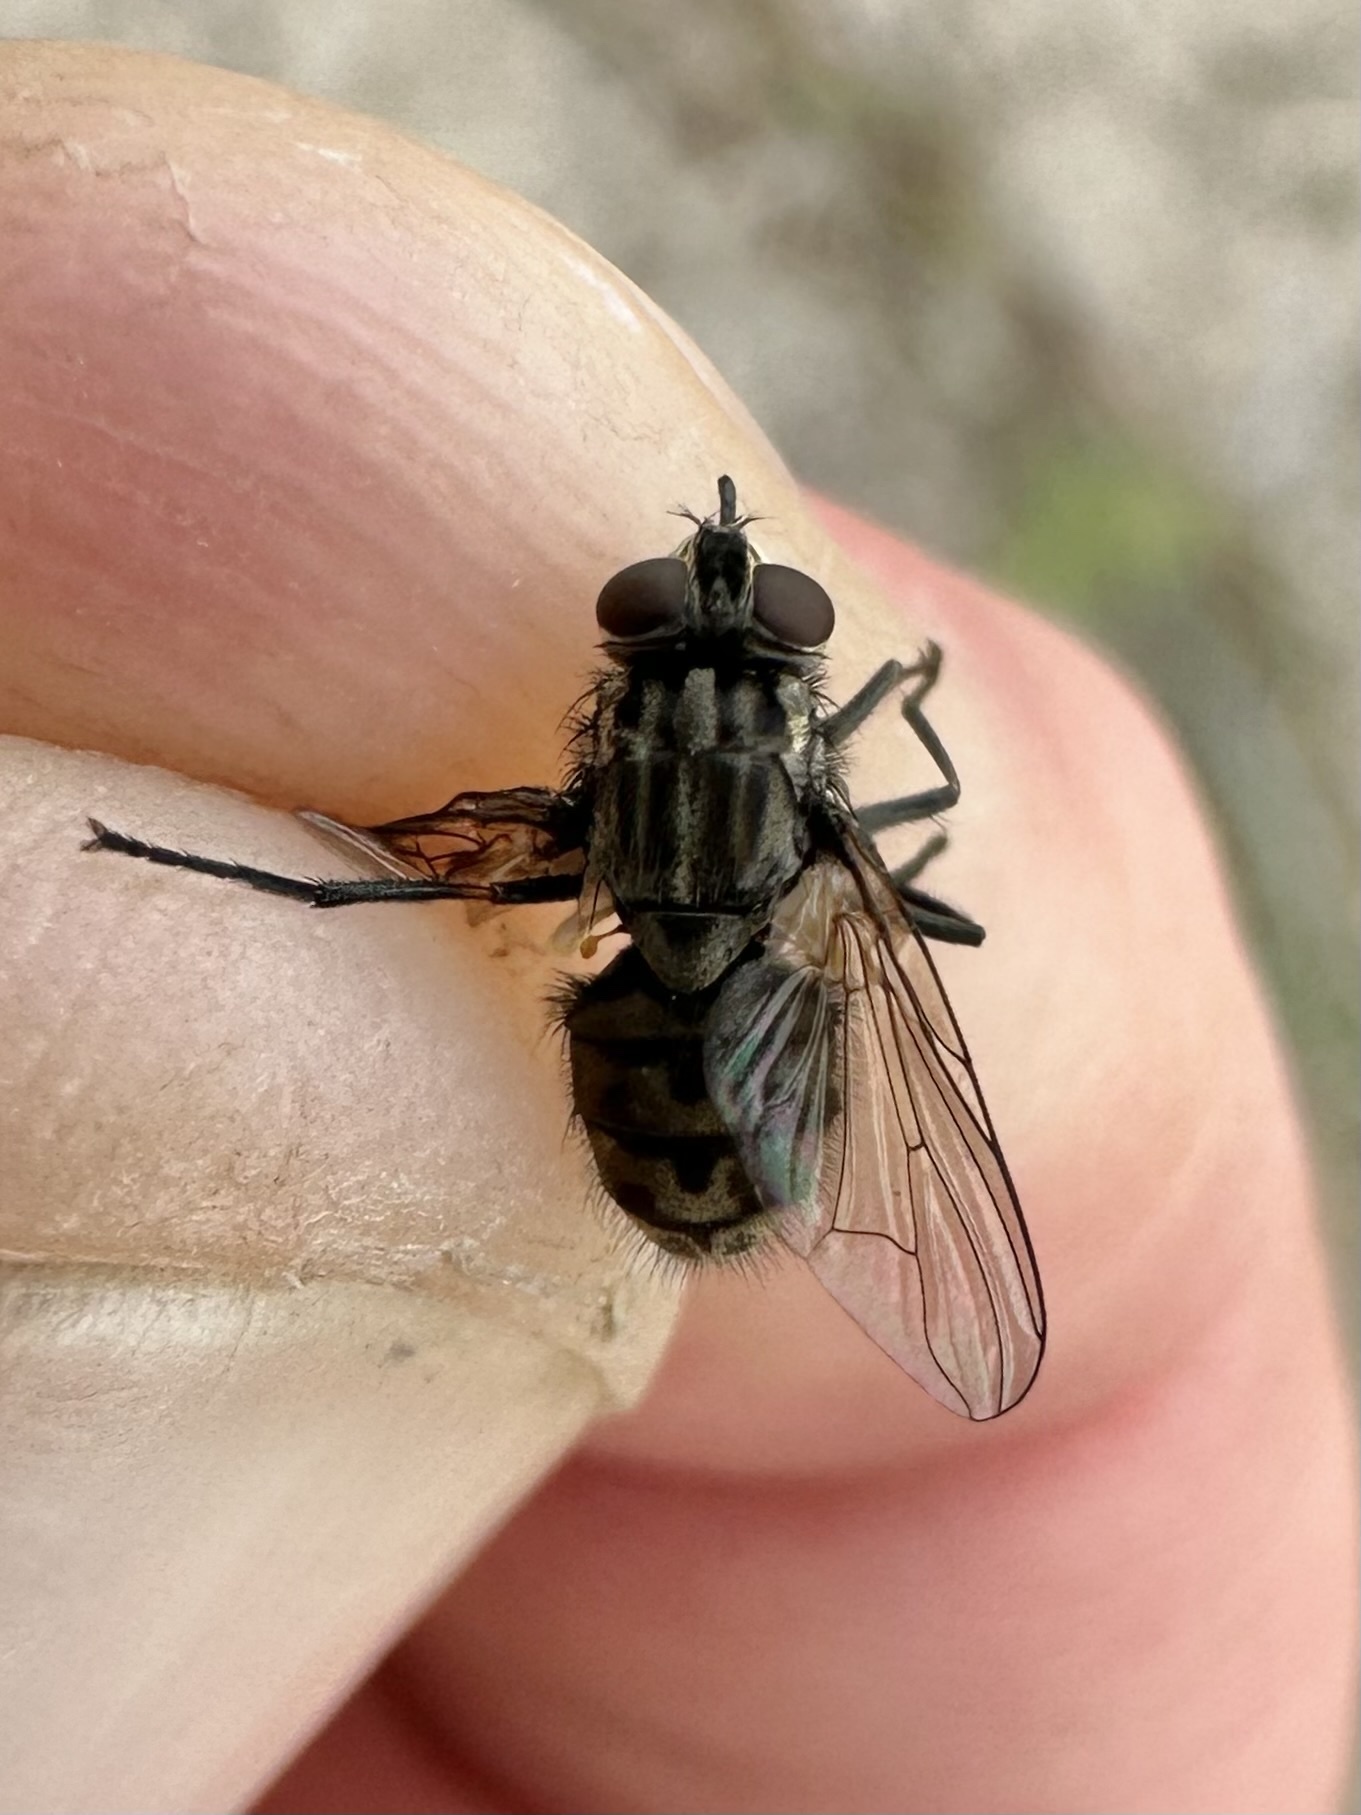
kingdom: Animalia
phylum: Arthropoda
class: Insecta
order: Diptera
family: Muscidae
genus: Stomoxys
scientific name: Stomoxys calcitrans
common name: Stable fly
